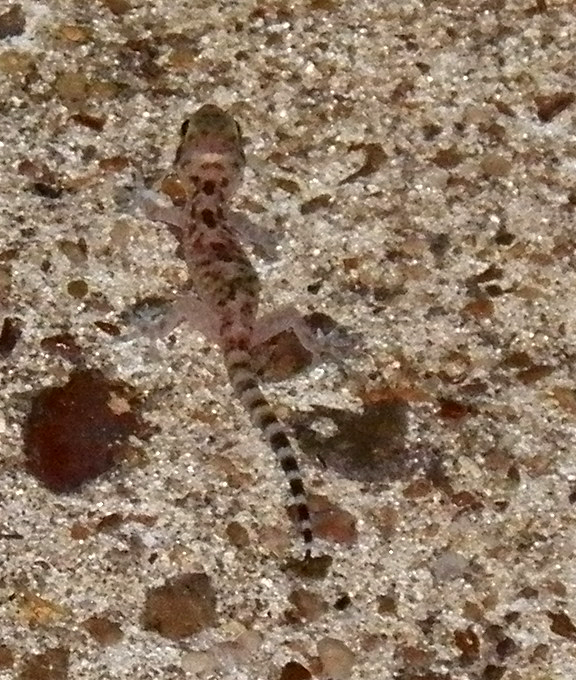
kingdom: Animalia
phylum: Chordata
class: Squamata
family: Gekkonidae
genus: Hemidactylus
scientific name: Hemidactylus turcicus
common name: Turkish gecko
